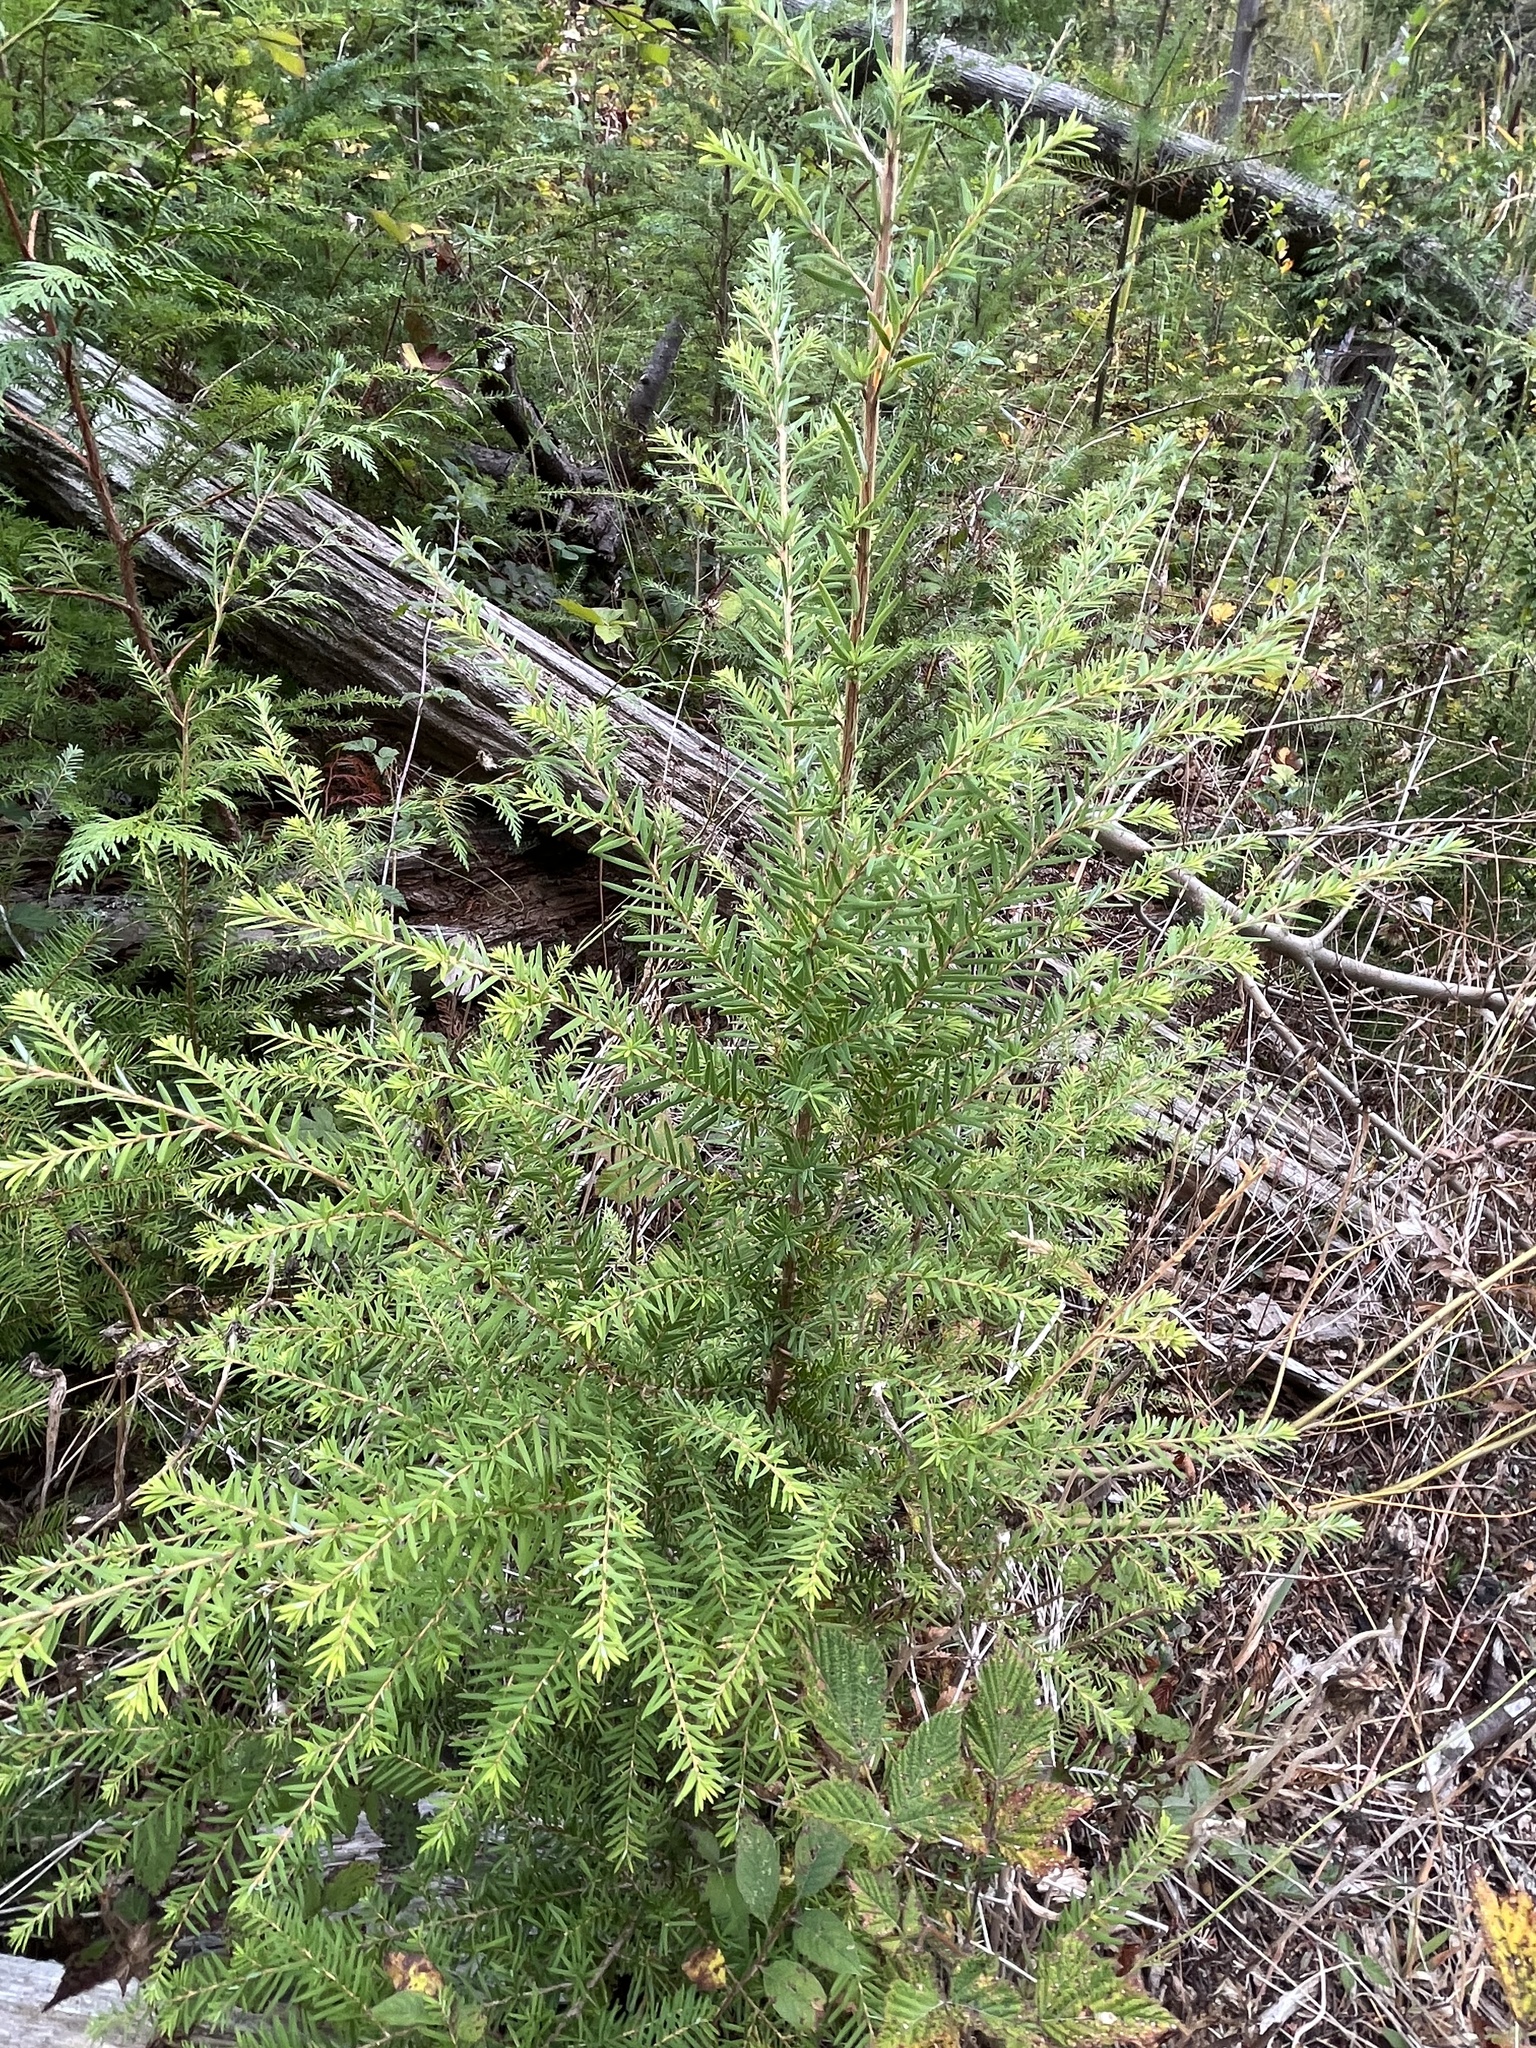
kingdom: Plantae
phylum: Tracheophyta
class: Pinopsida
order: Pinales
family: Pinaceae
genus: Tsuga
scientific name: Tsuga heterophylla
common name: Western hemlock
